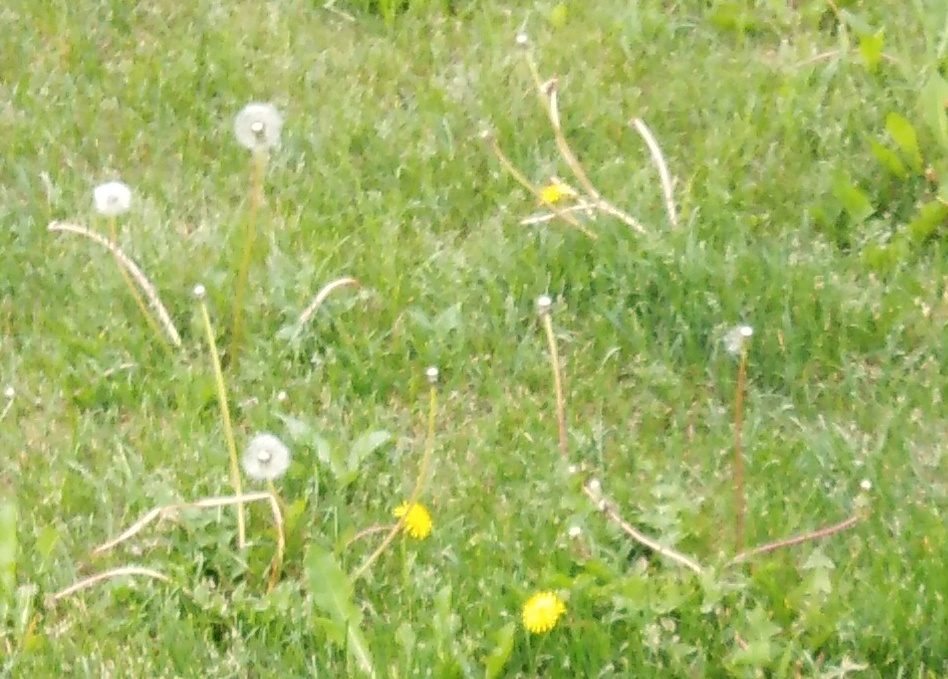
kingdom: Plantae
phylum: Tracheophyta
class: Magnoliopsida
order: Asterales
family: Asteraceae
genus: Taraxacum
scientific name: Taraxacum officinale
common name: Common dandelion
